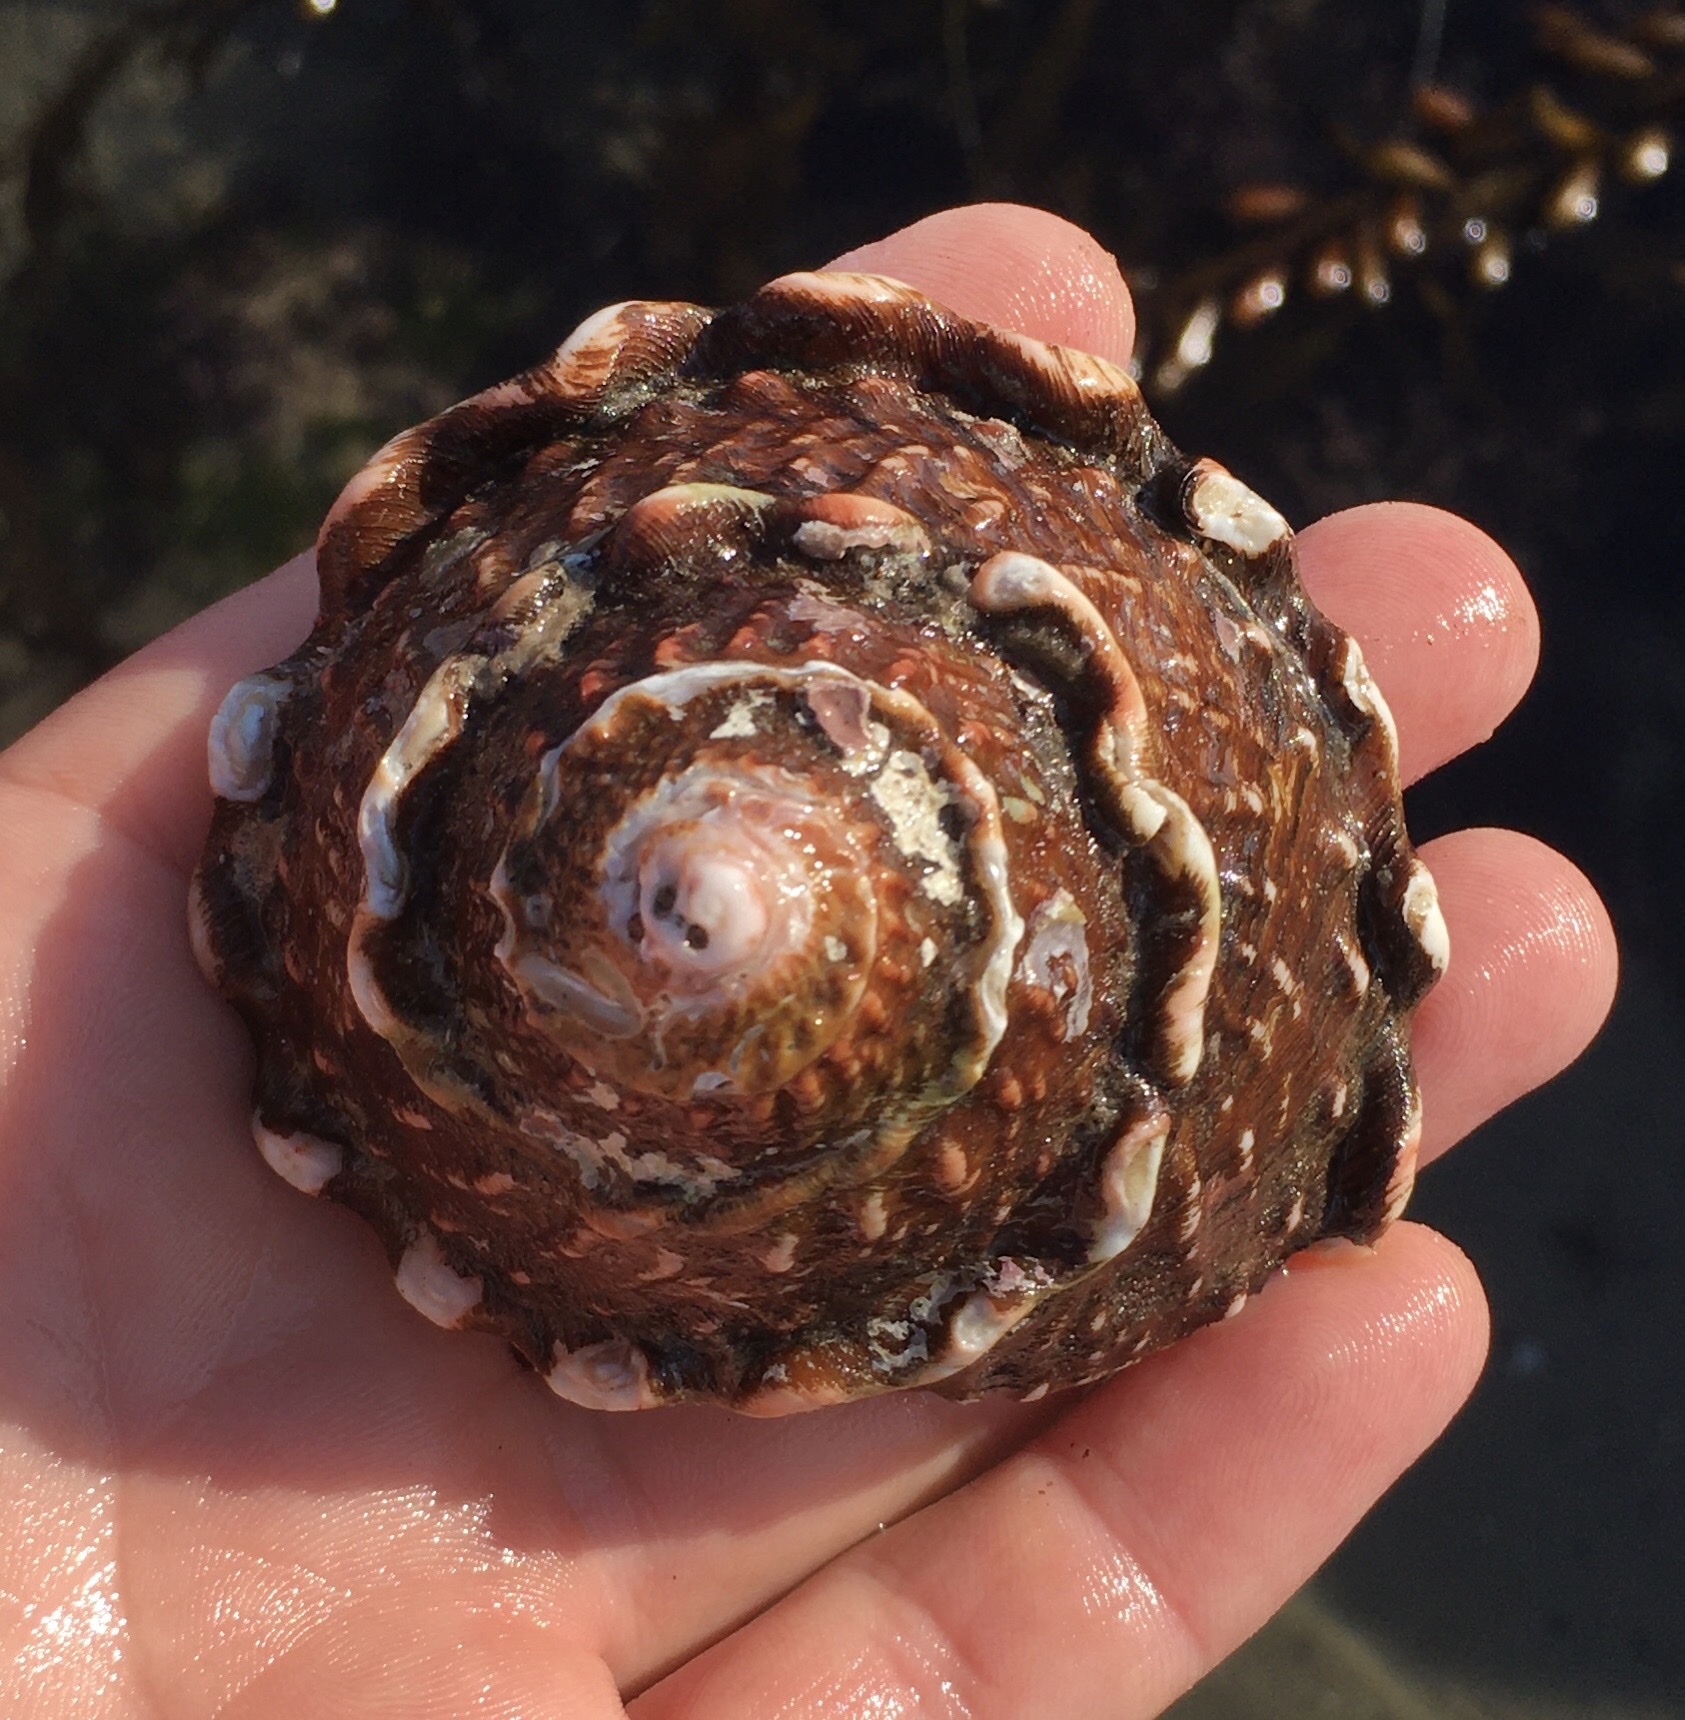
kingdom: Animalia
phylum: Mollusca
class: Gastropoda
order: Trochida
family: Turbinidae
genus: Megastraea
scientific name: Megastraea undosa
